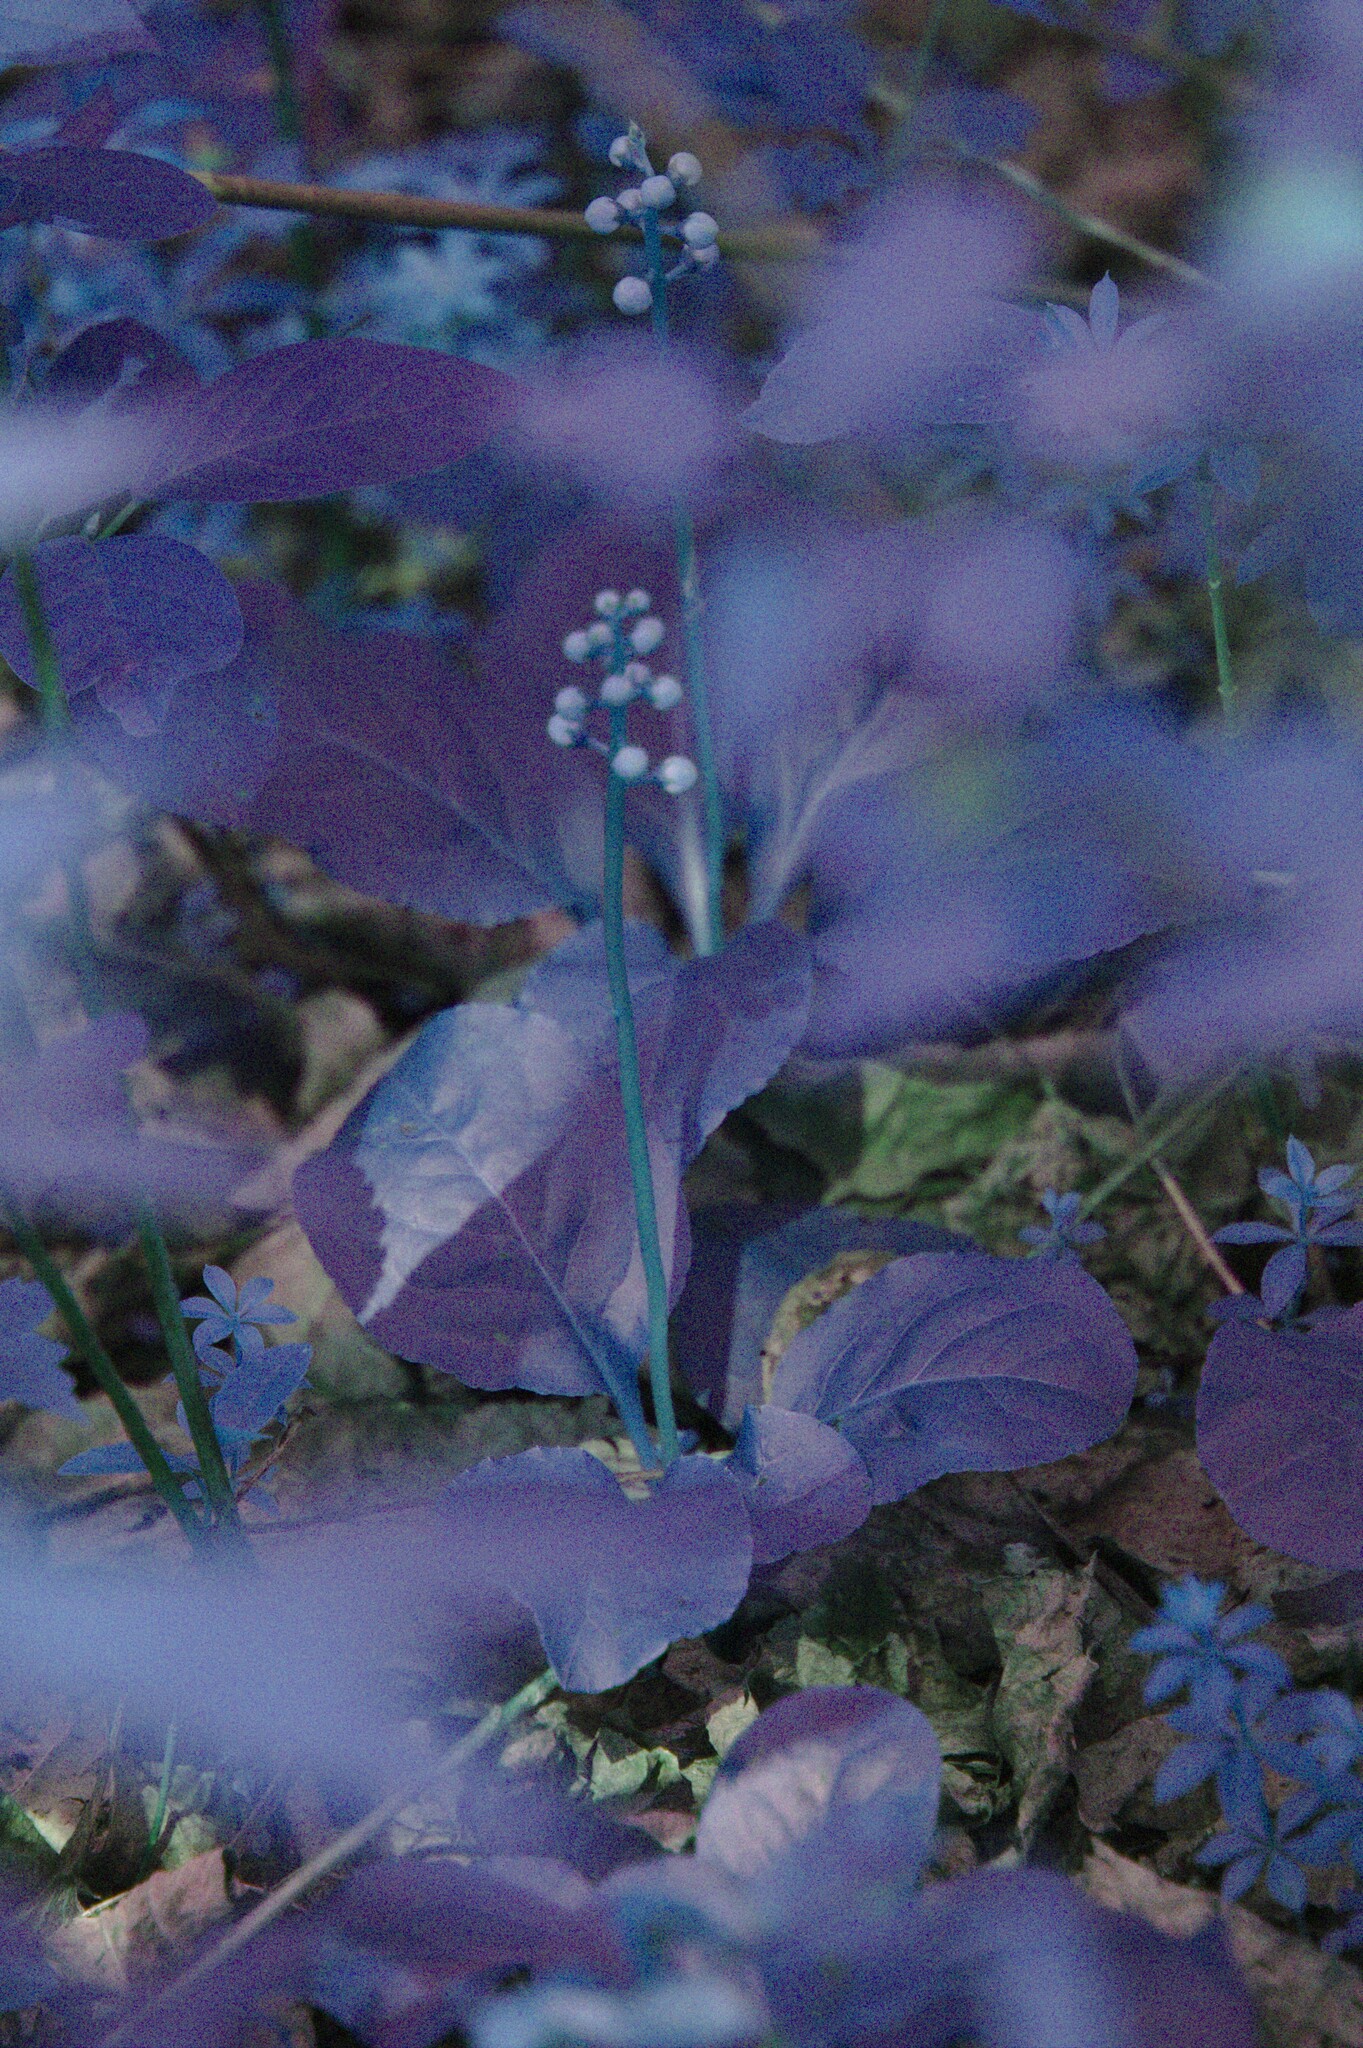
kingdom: Plantae
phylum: Tracheophyta
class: Magnoliopsida
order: Ericales
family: Ericaceae
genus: Pyrola
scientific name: Pyrola elliptica
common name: Shinleaf
